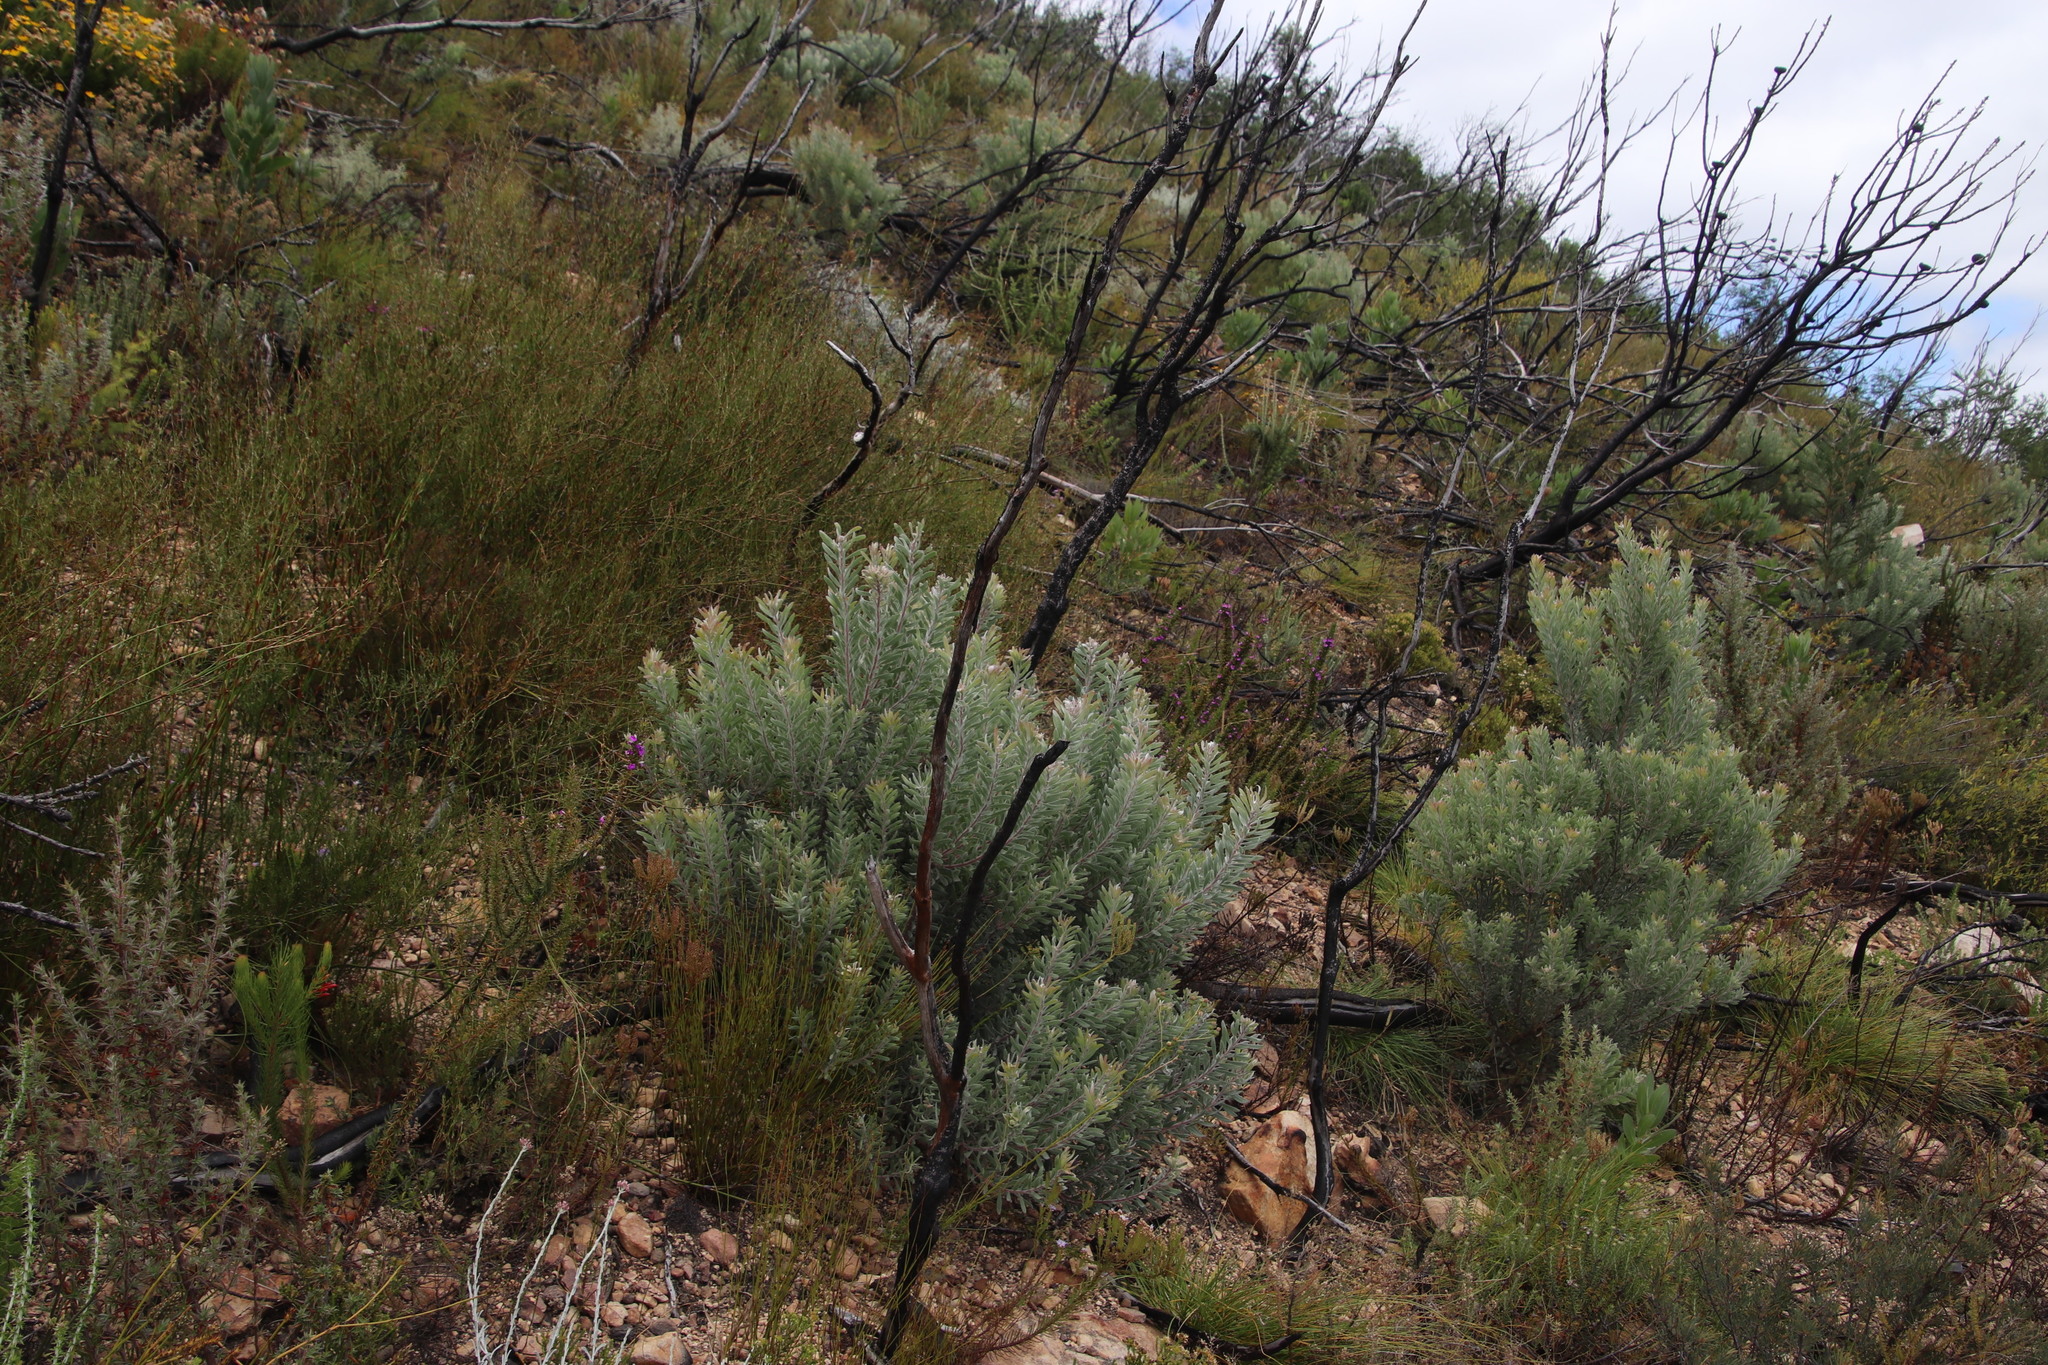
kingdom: Plantae
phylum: Tracheophyta
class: Magnoliopsida
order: Proteales
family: Proteaceae
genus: Leucadendron
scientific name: Leucadendron rubrum
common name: Spinning top
